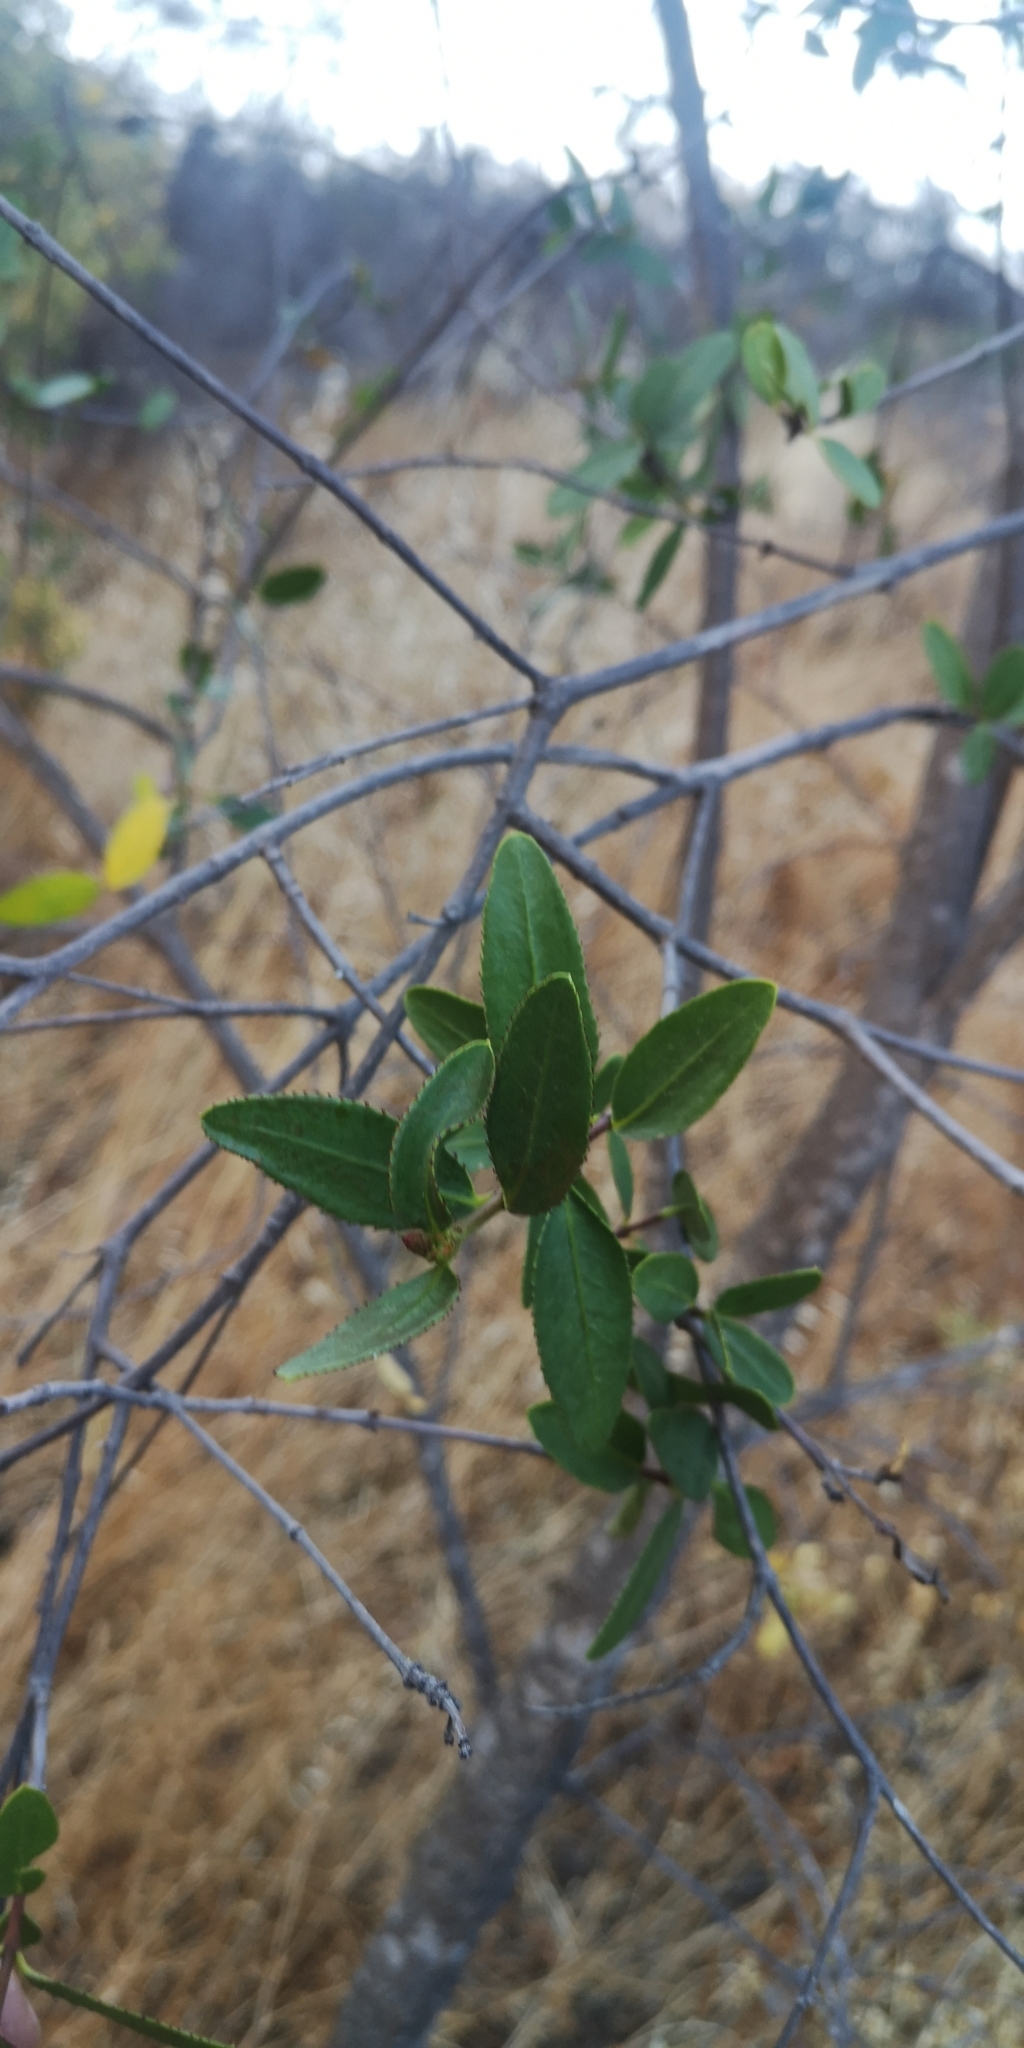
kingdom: Plantae
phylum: Tracheophyta
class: Magnoliopsida
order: Malpighiales
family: Euphorbiaceae
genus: Colliguaja
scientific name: Colliguaja odorifera
